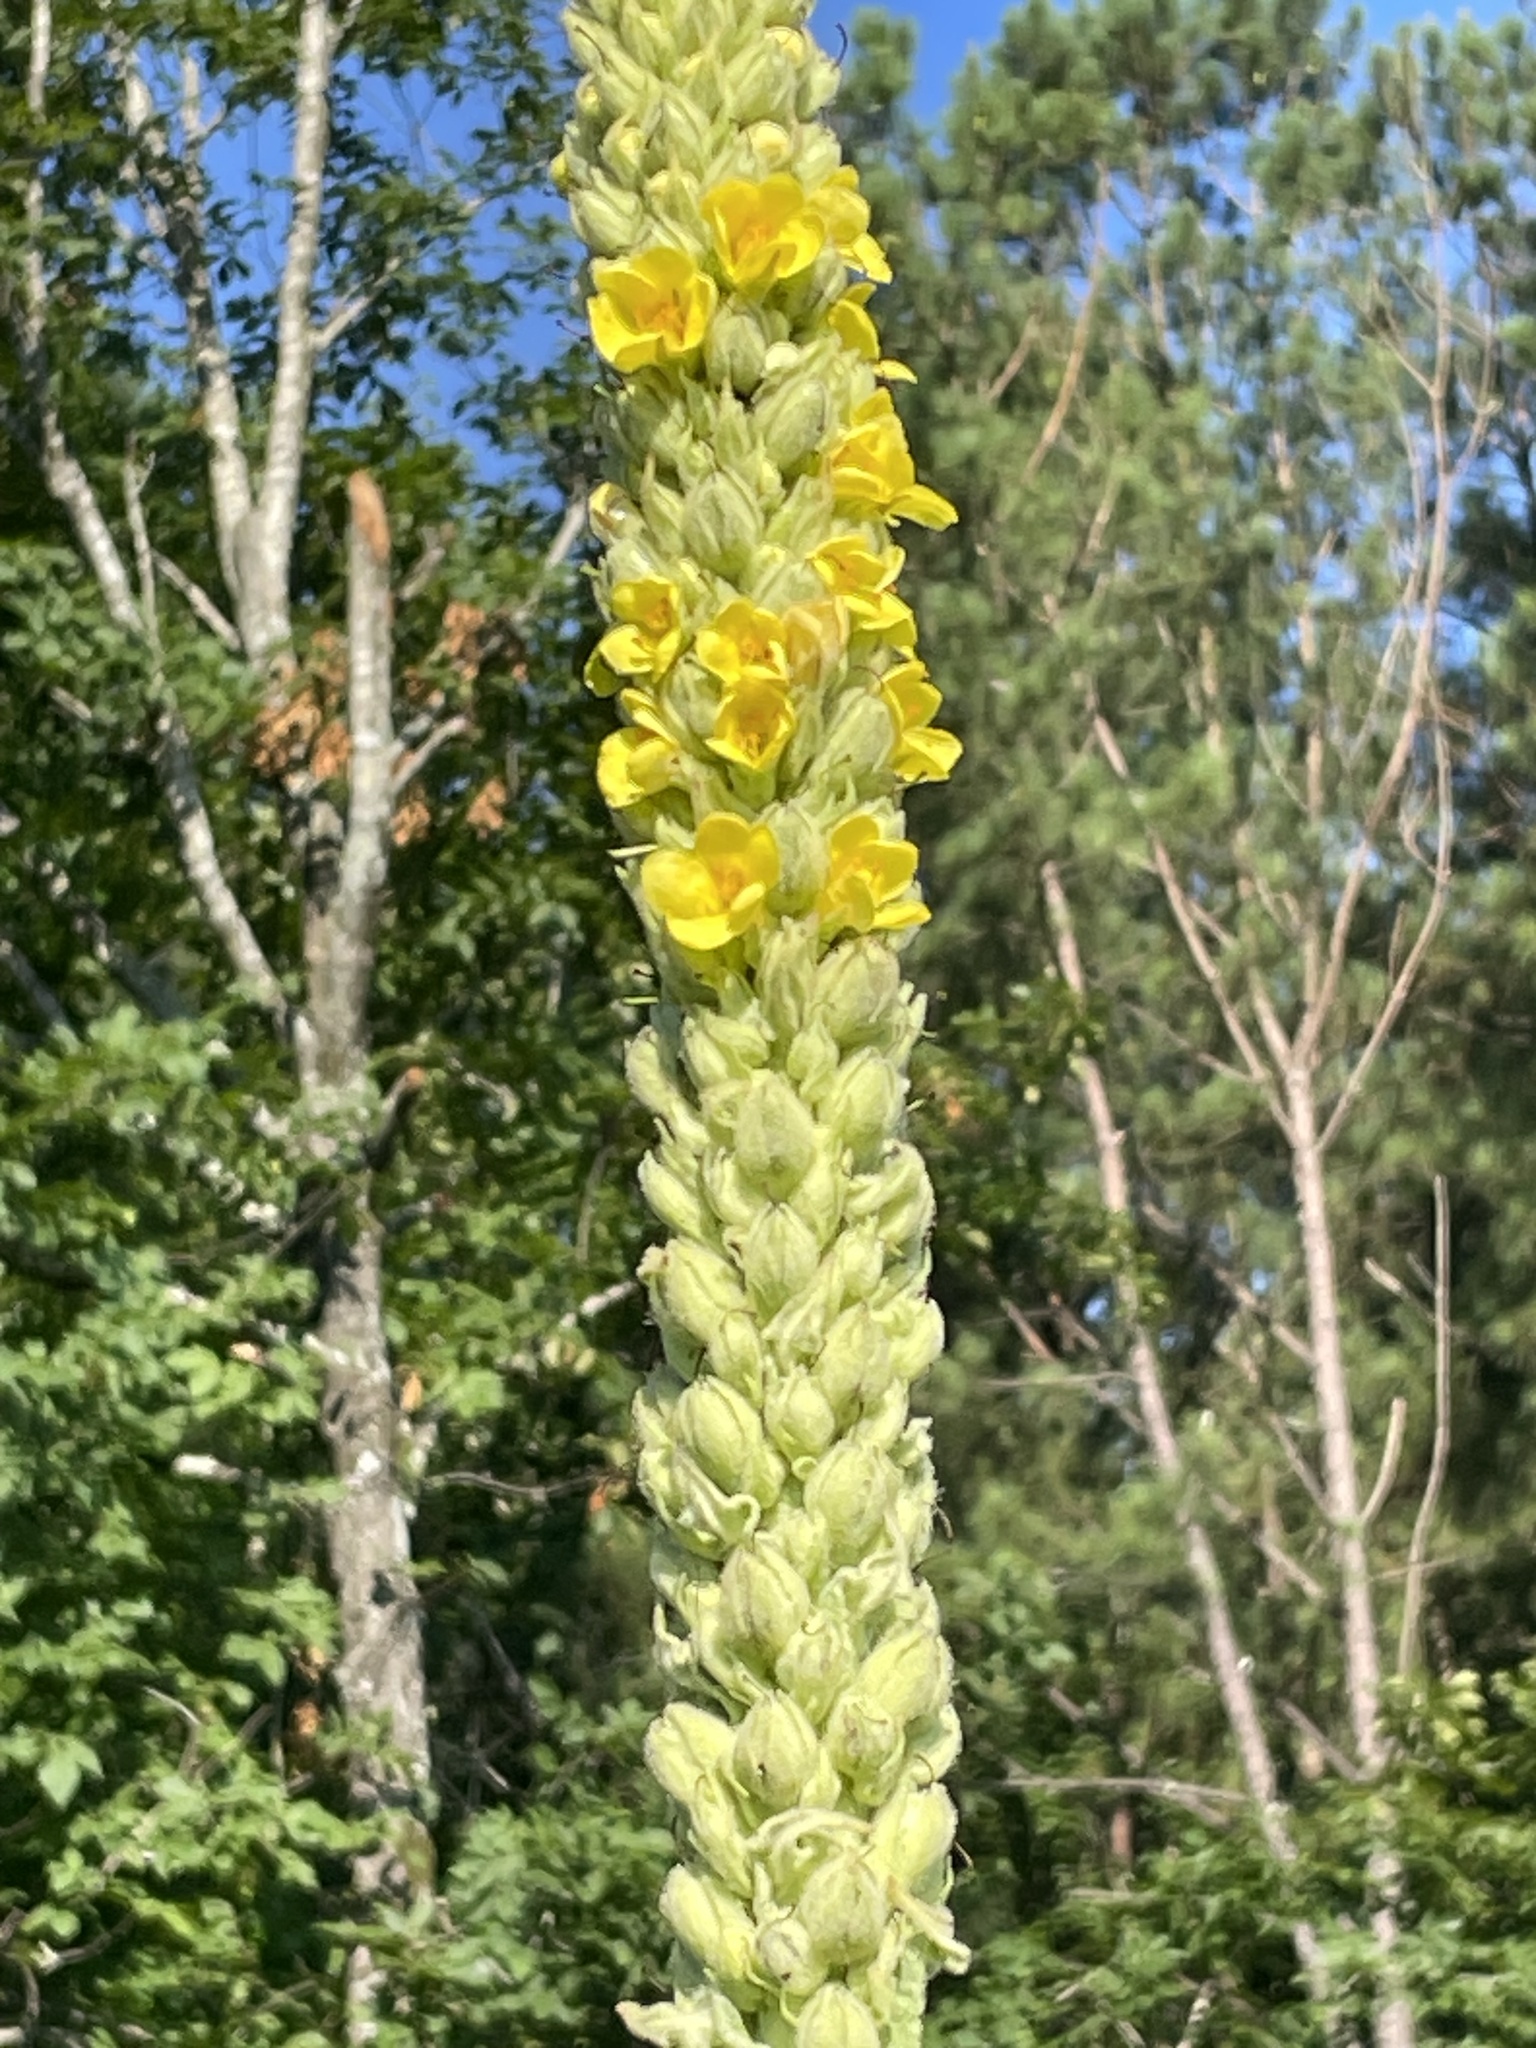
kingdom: Plantae
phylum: Tracheophyta
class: Magnoliopsida
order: Lamiales
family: Scrophulariaceae
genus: Verbascum
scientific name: Verbascum thapsus
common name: Common mullein
